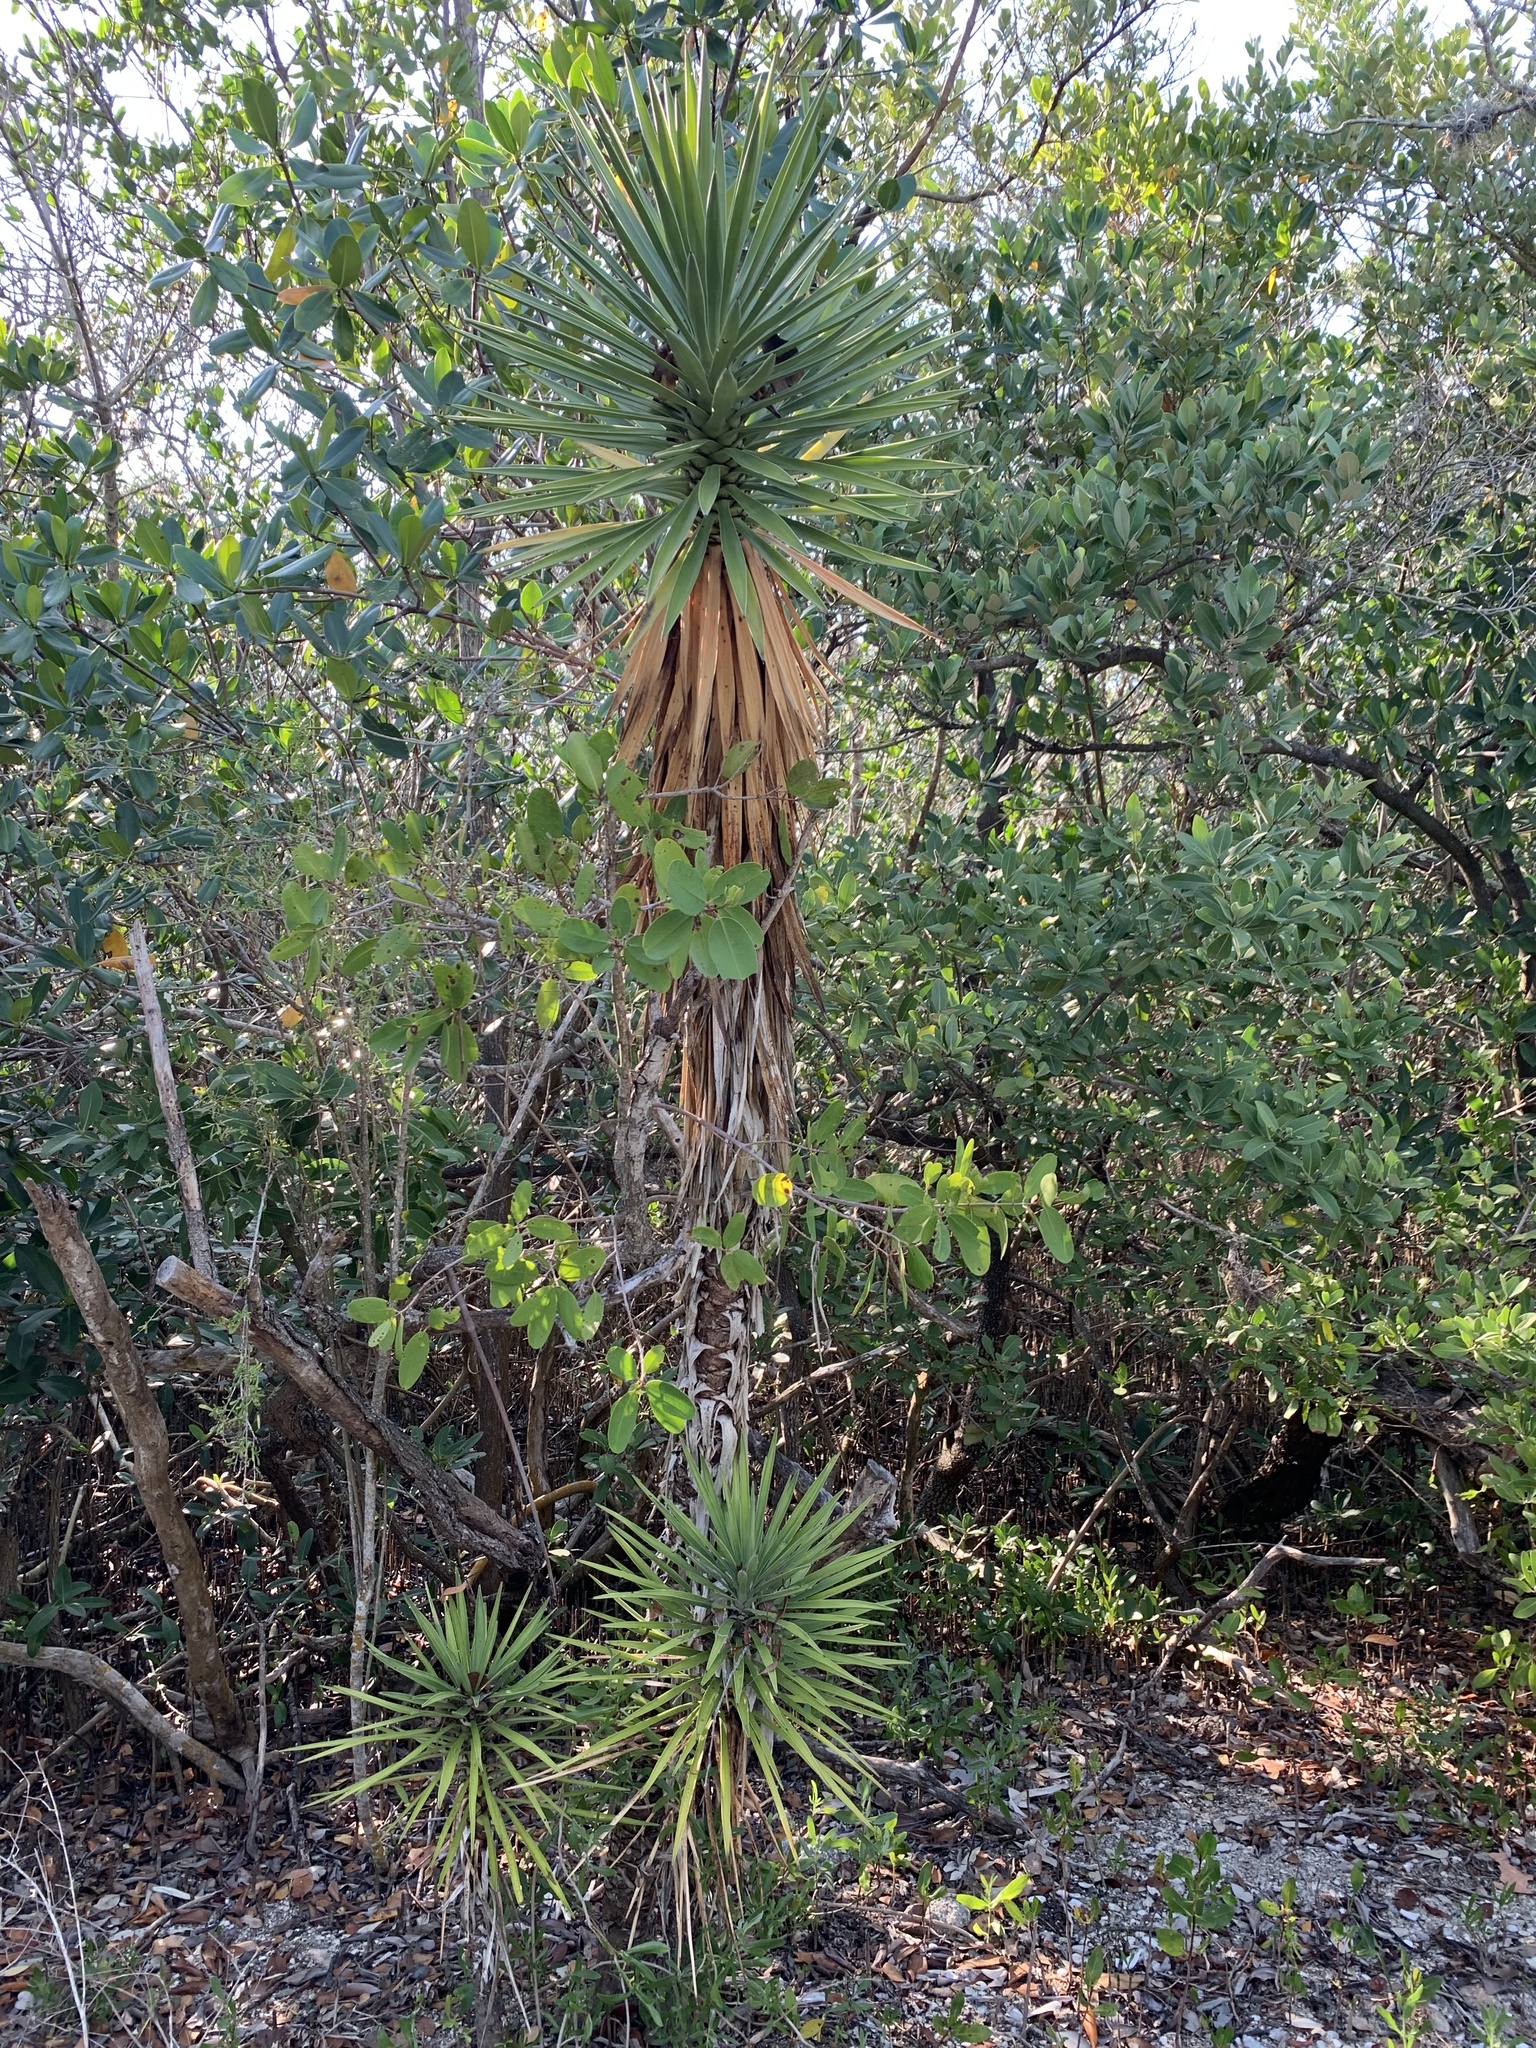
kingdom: Plantae
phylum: Tracheophyta
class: Liliopsida
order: Asparagales
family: Asparagaceae
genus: Yucca
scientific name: Yucca aloifolia
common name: Aloe yucca
